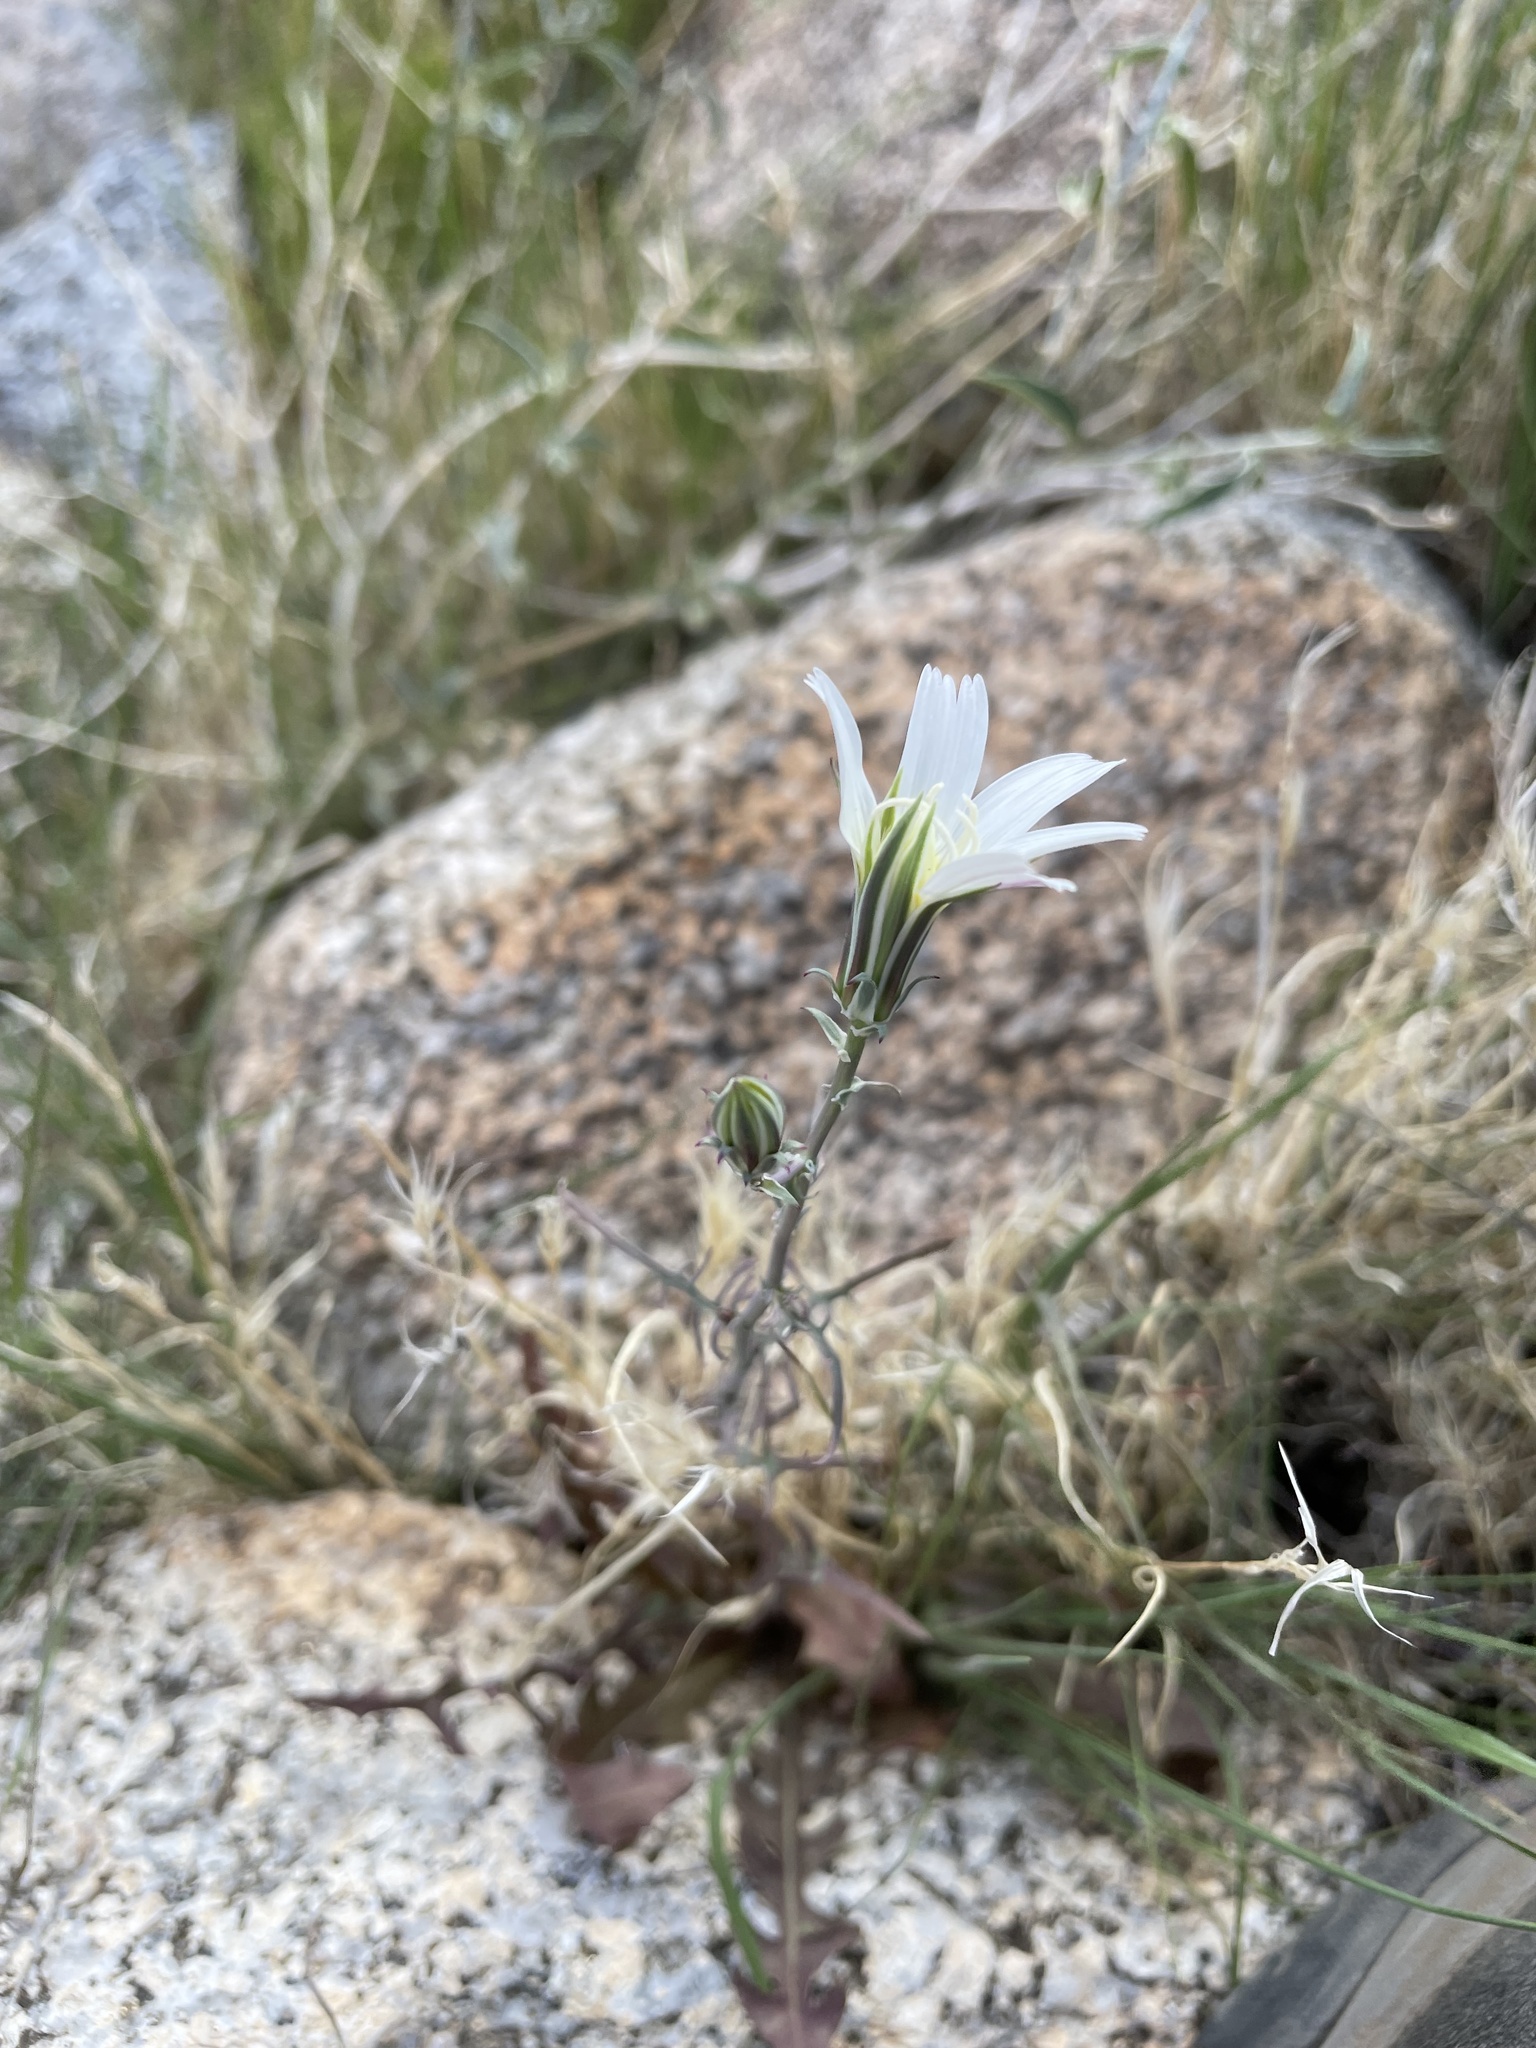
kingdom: Plantae
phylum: Tracheophyta
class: Magnoliopsida
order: Asterales
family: Asteraceae
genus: Rafinesquia
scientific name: Rafinesquia neomexicana
